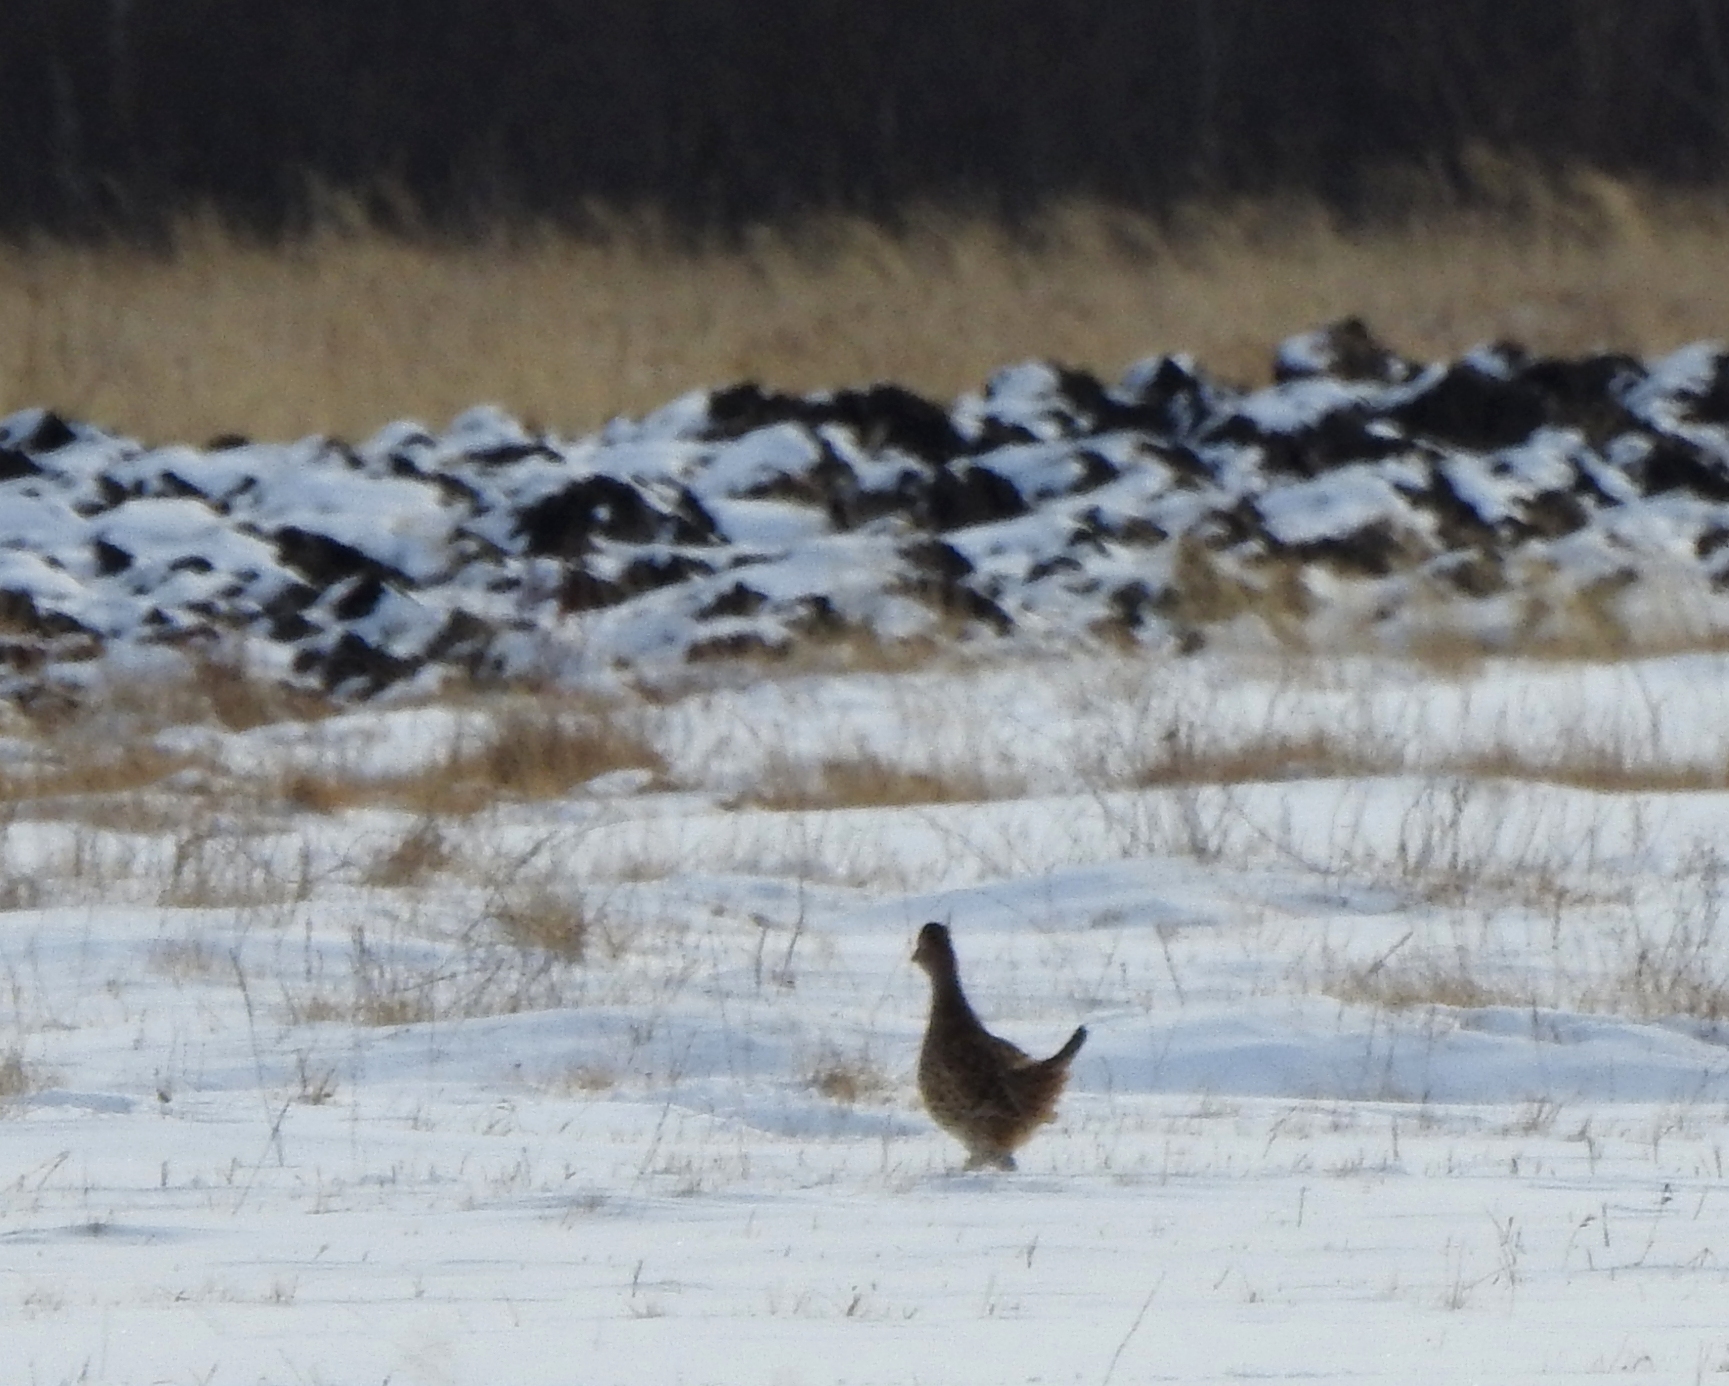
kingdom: Animalia
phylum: Chordata
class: Aves
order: Galliformes
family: Phasianidae
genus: Phasianus
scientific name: Phasianus colchicus
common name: Common pheasant
